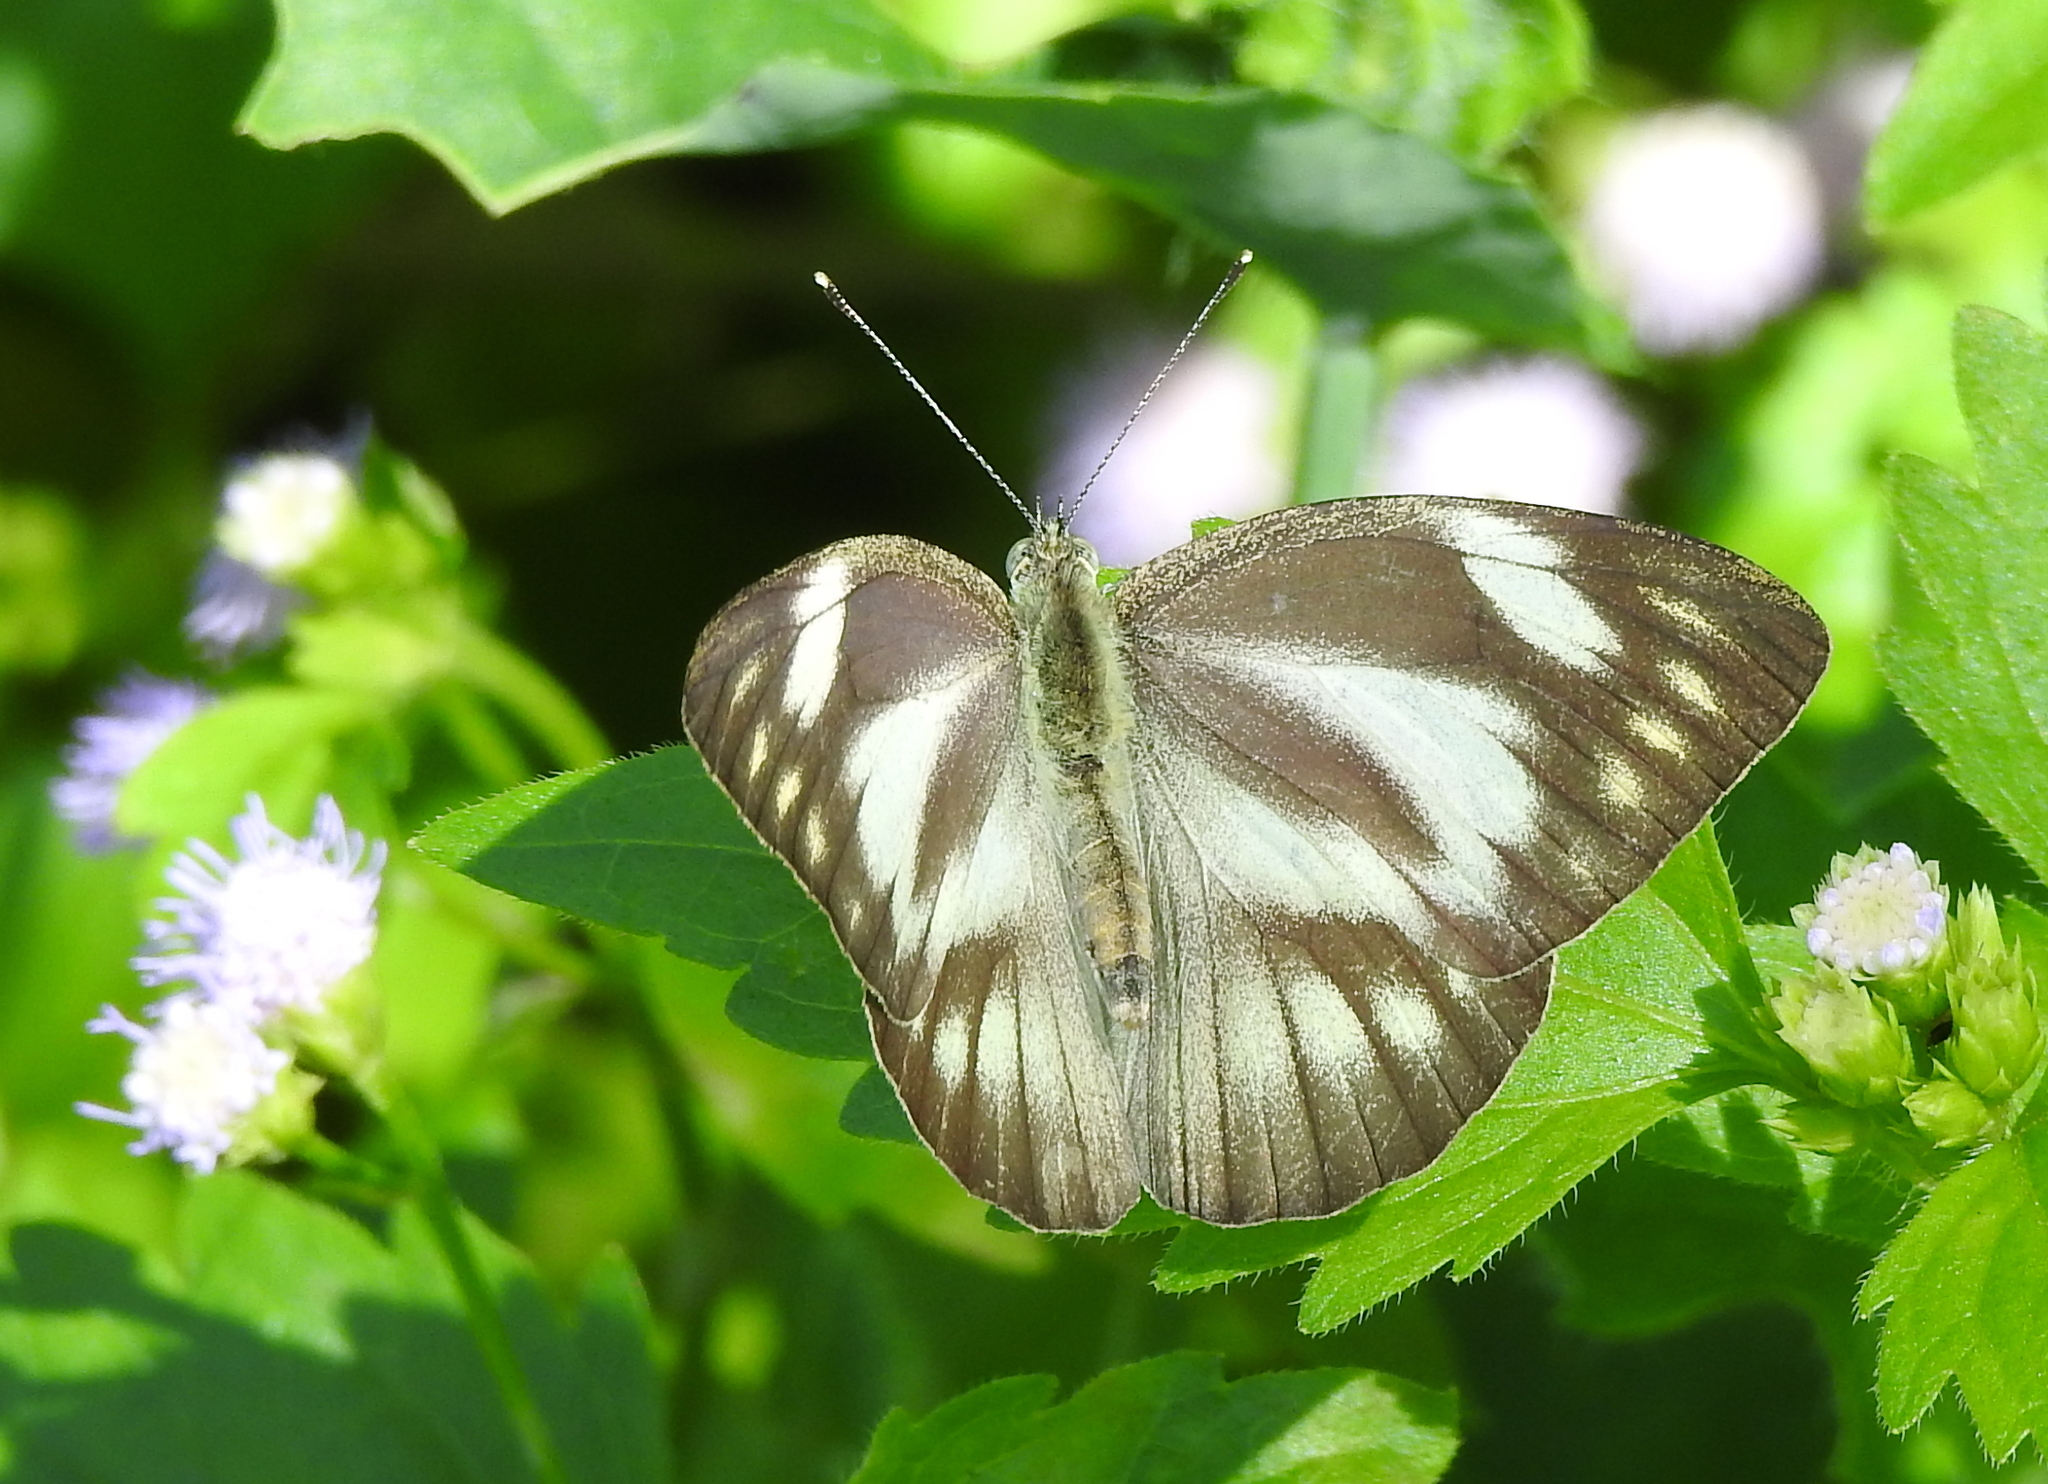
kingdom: Animalia
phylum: Arthropoda
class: Insecta
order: Lepidoptera
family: Pieridae
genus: Appias
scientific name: Appias libythea
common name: Striped albatross
